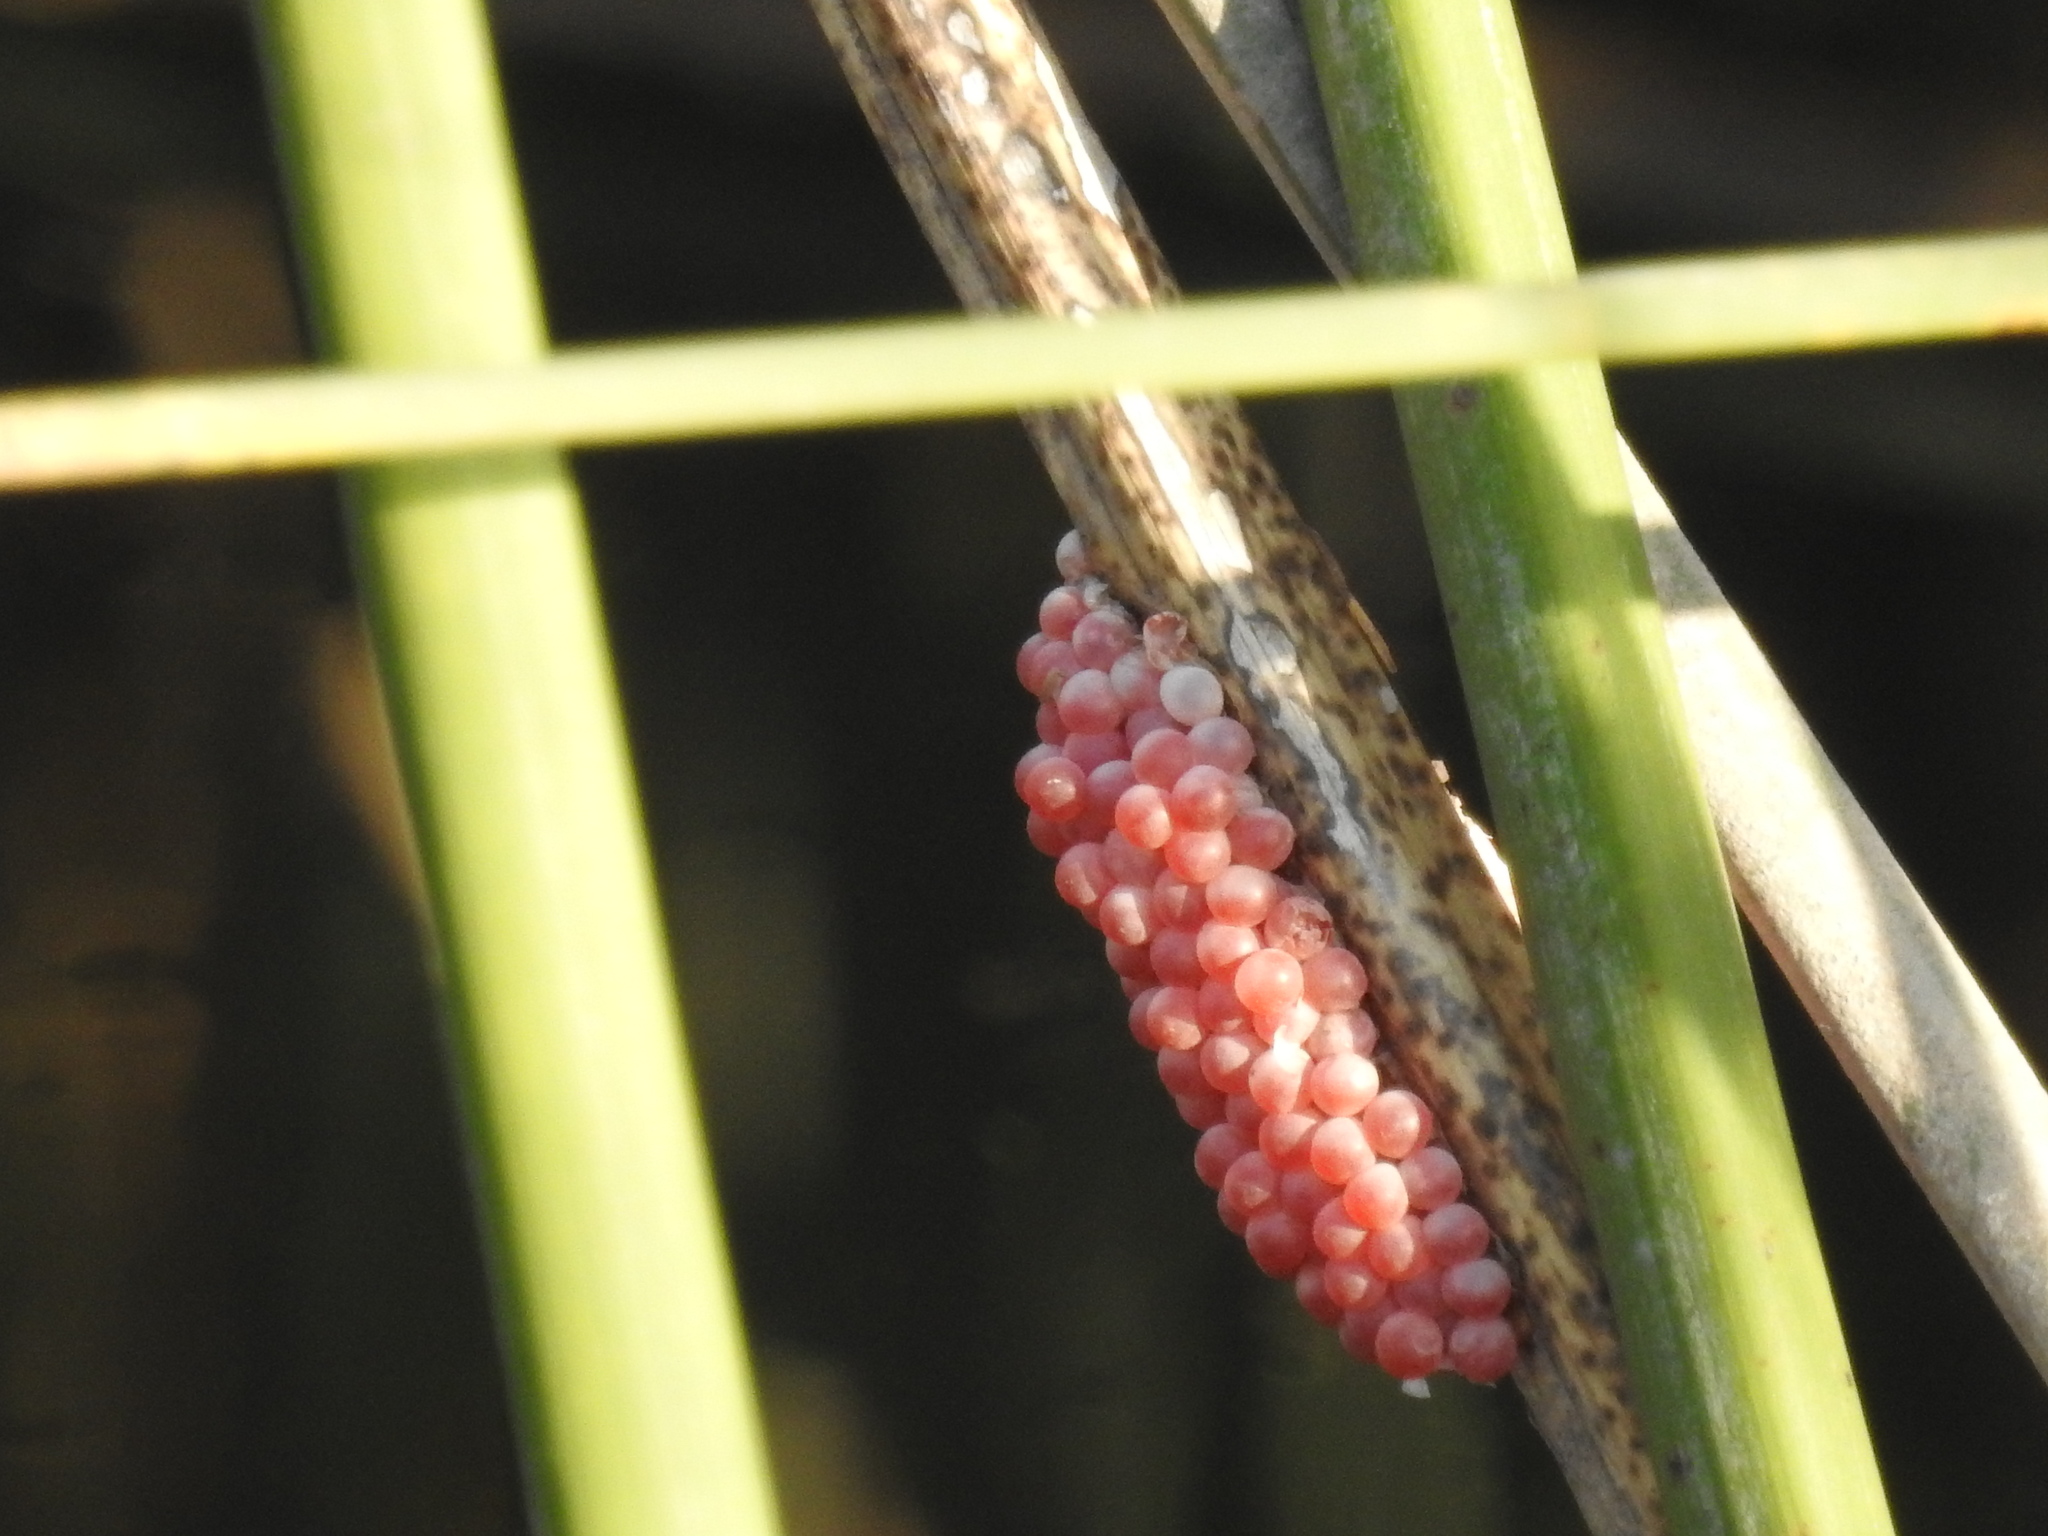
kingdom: Animalia
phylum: Mollusca
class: Gastropoda
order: Architaenioglossa
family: Ampullariidae
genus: Pomacea
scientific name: Pomacea canaliculata
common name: Channeled applesnail
